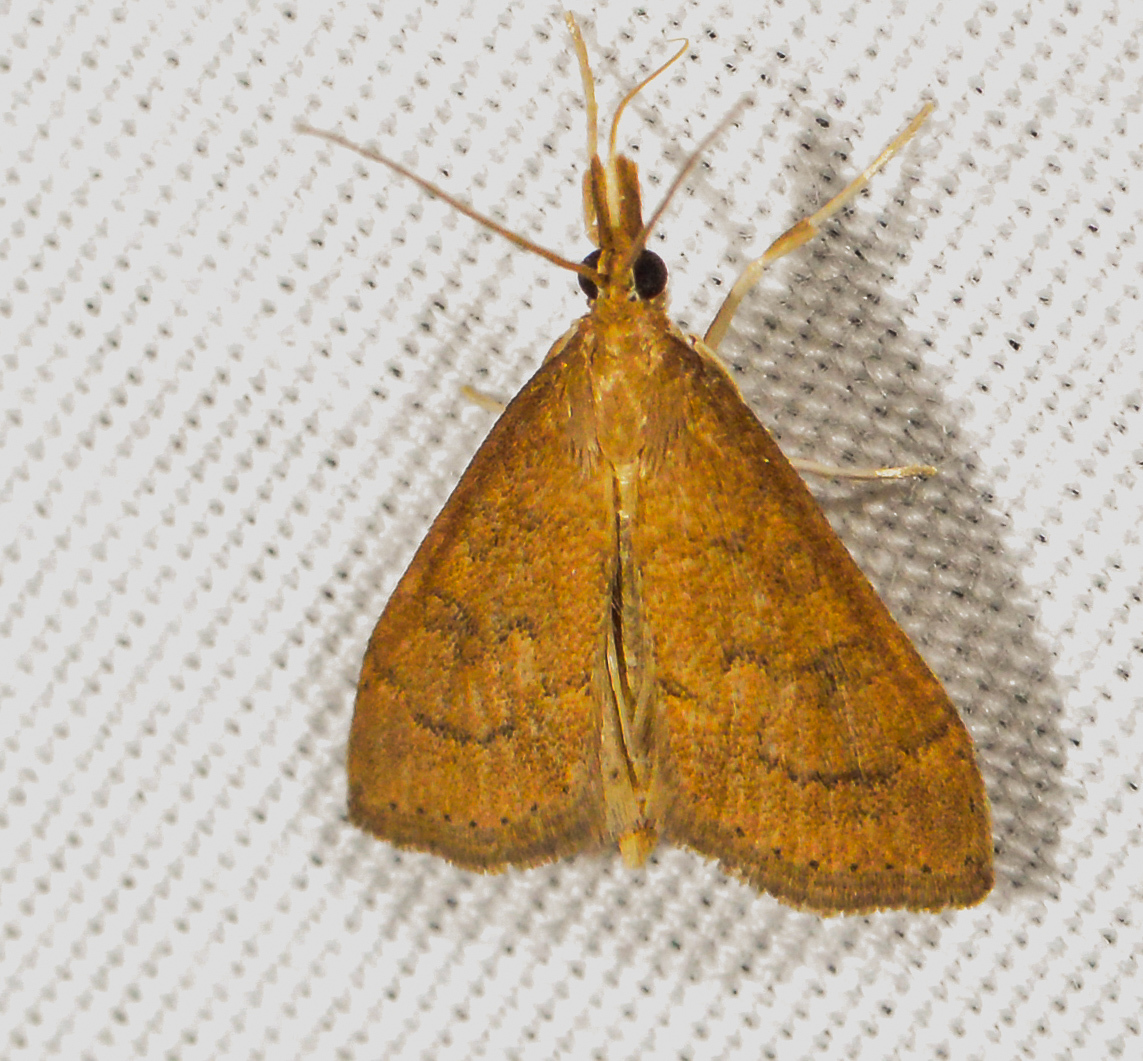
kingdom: Animalia
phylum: Arthropoda
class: Insecta
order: Lepidoptera
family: Crambidae
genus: Udea
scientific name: Udea rubigalis
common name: Celery leaftier moth
